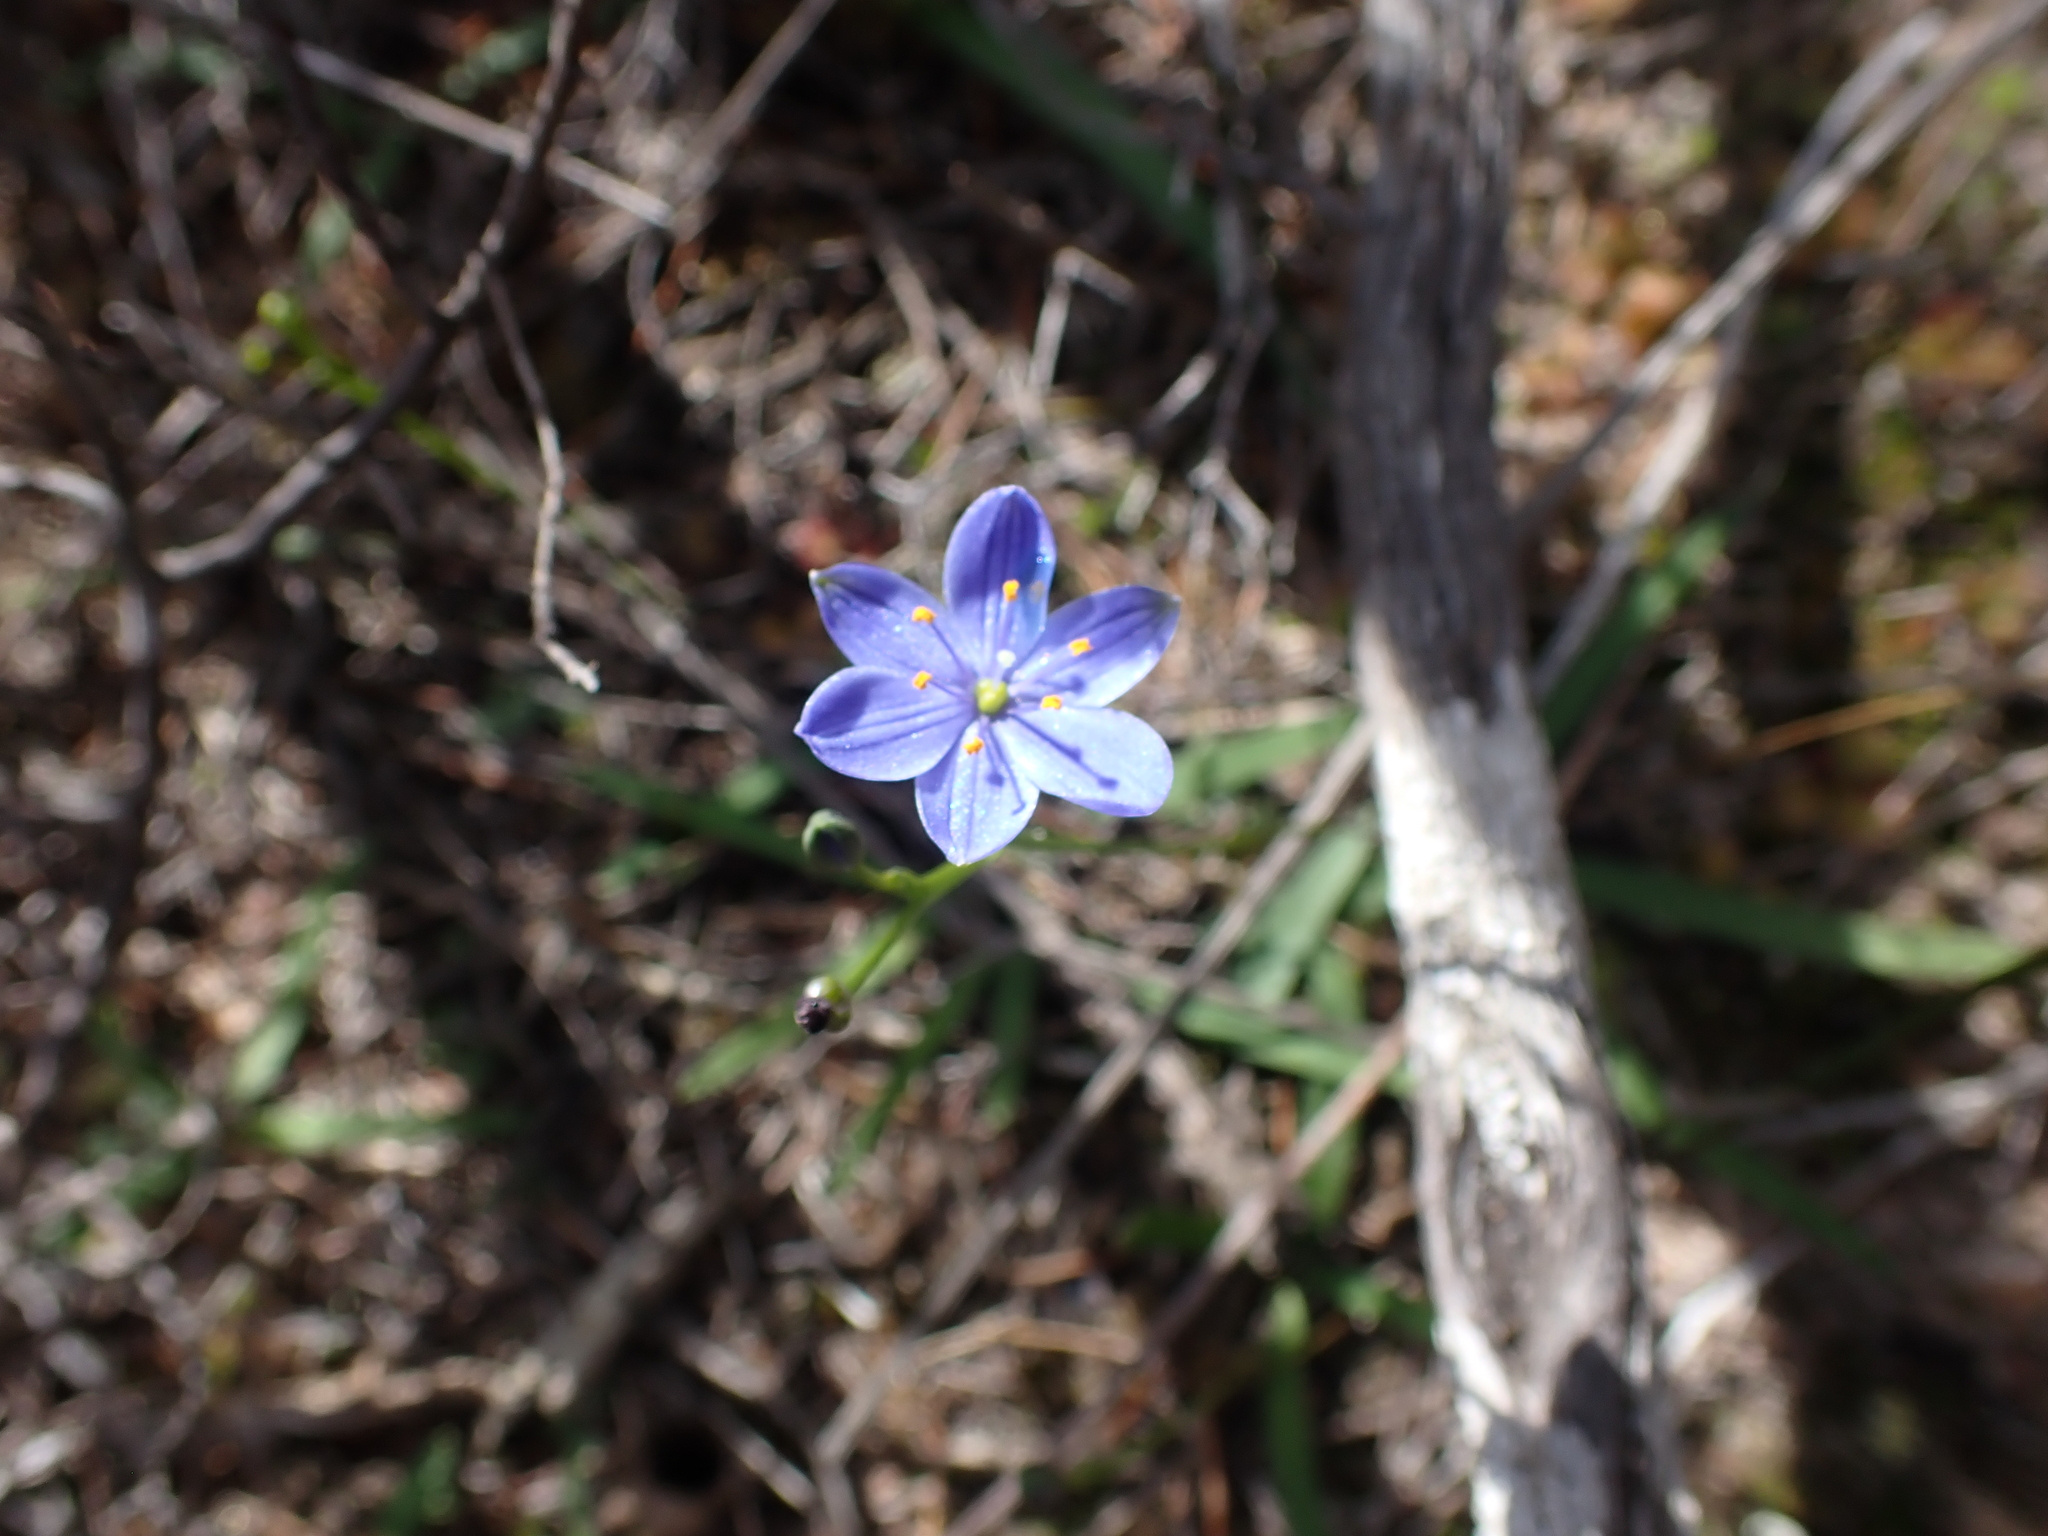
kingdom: Plantae
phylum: Tracheophyta
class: Liliopsida
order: Asparagales
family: Asphodelaceae
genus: Chamaescilla
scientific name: Chamaescilla corymbosa
